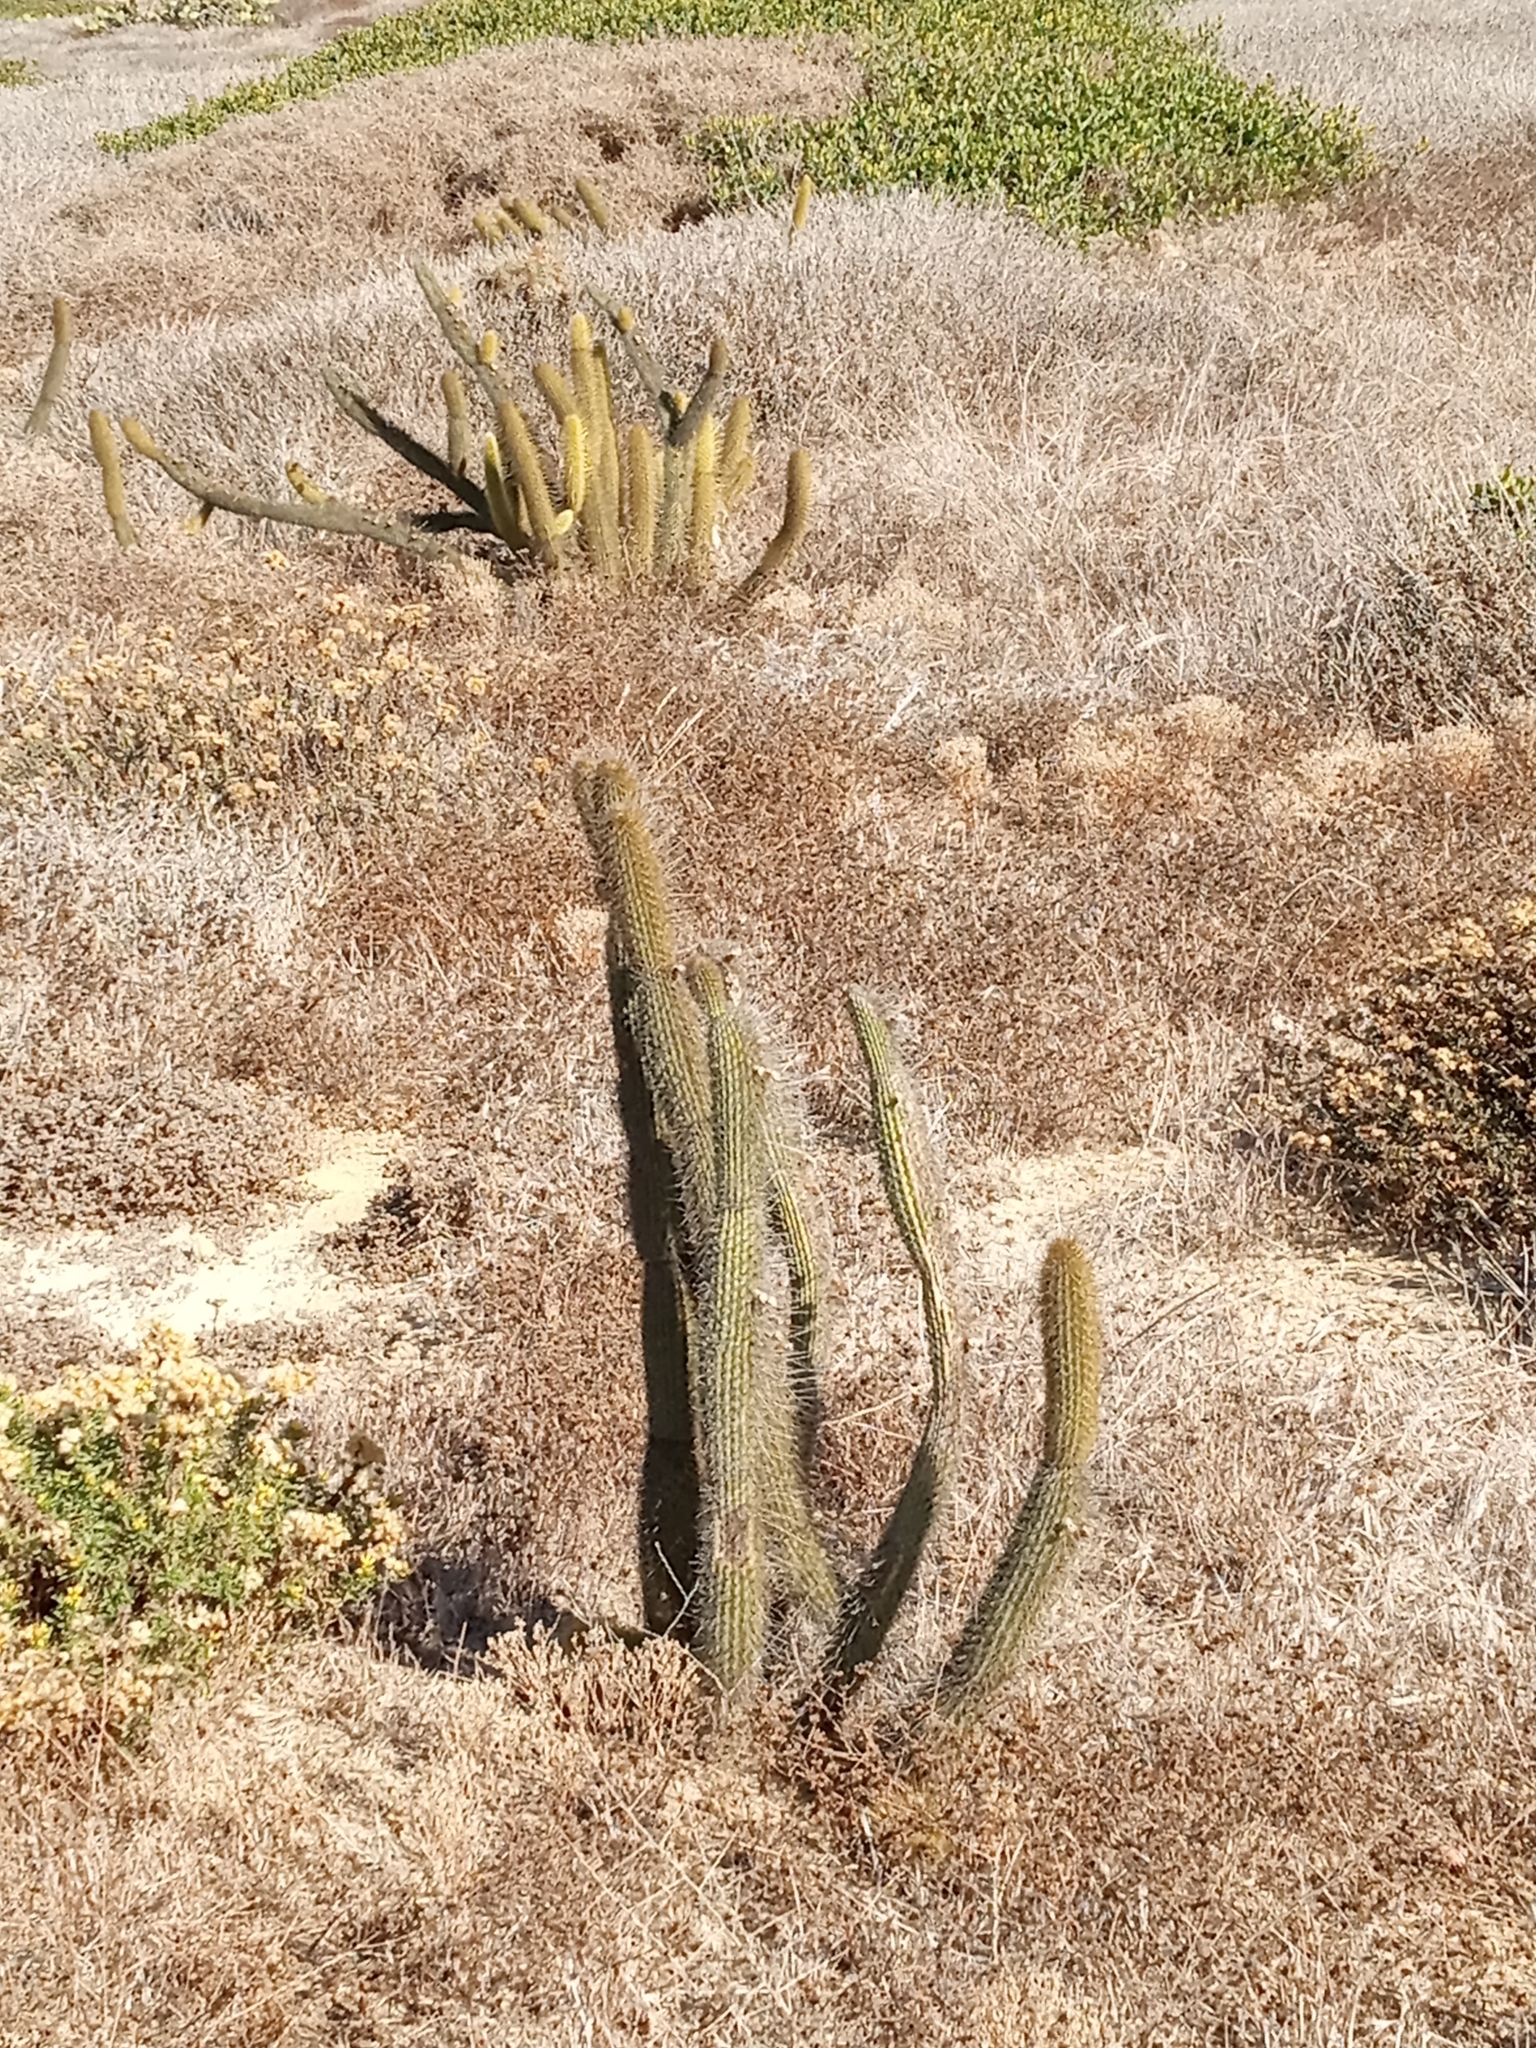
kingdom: Plantae
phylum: Tracheophyta
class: Magnoliopsida
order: Caryophyllales
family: Cactaceae
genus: Bergerocactus
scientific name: Bergerocactus emoryi
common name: Golden snakecactus
